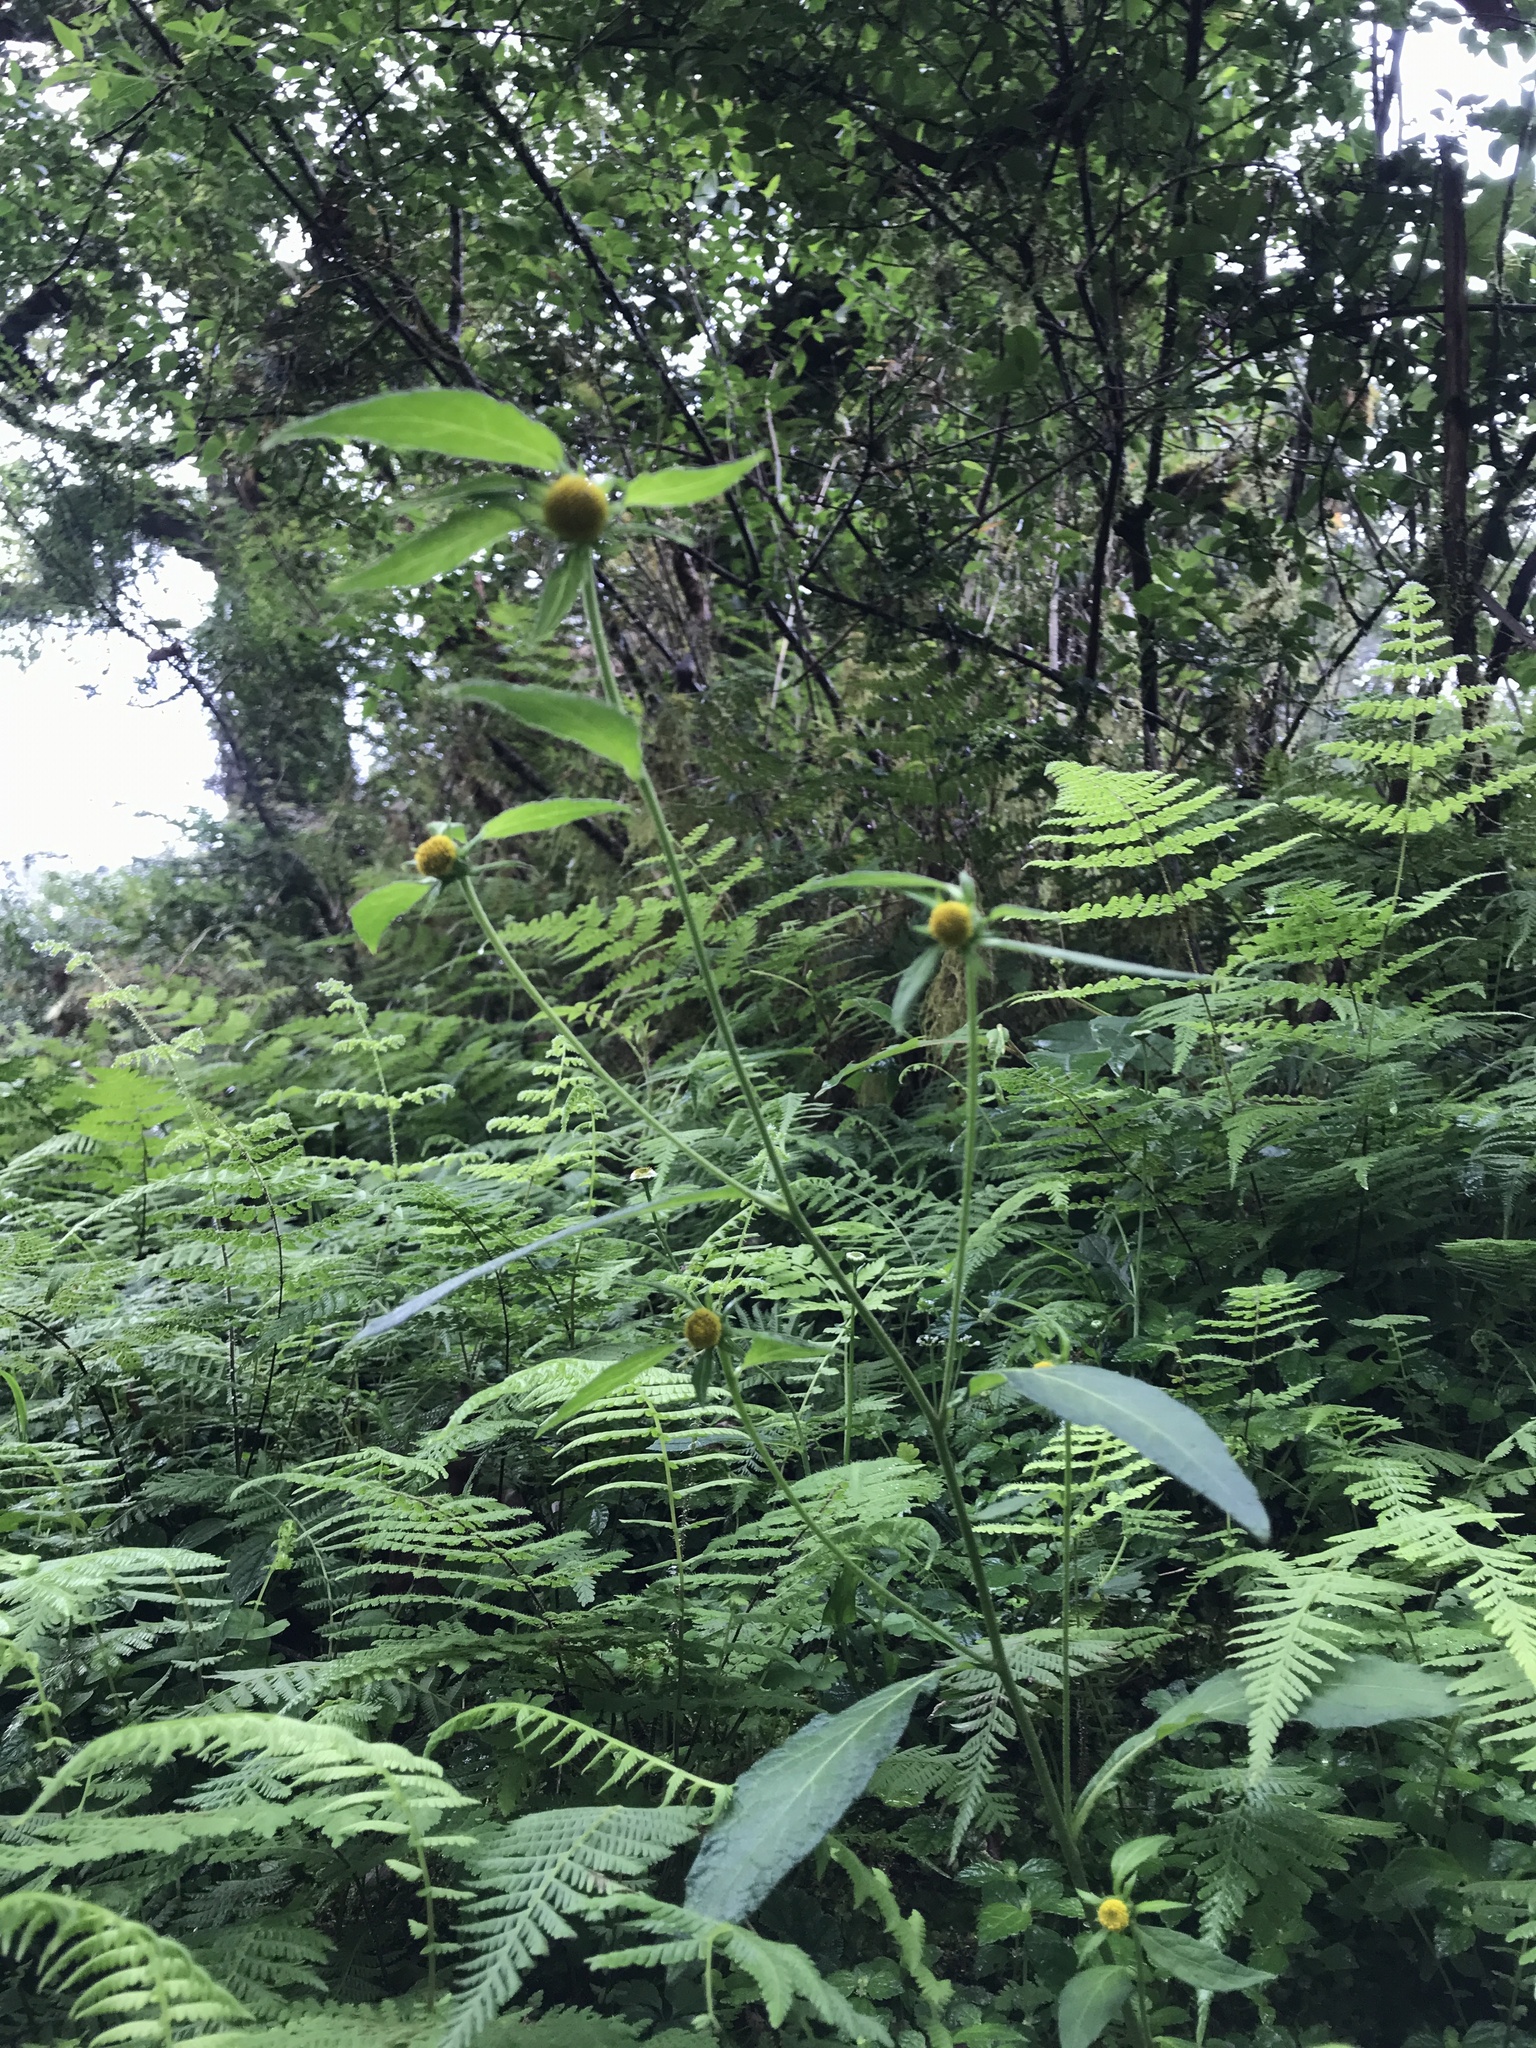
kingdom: Plantae
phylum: Tracheophyta
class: Magnoliopsida
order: Asterales
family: Asteraceae
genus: Carpesium
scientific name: Carpesium nepalense
